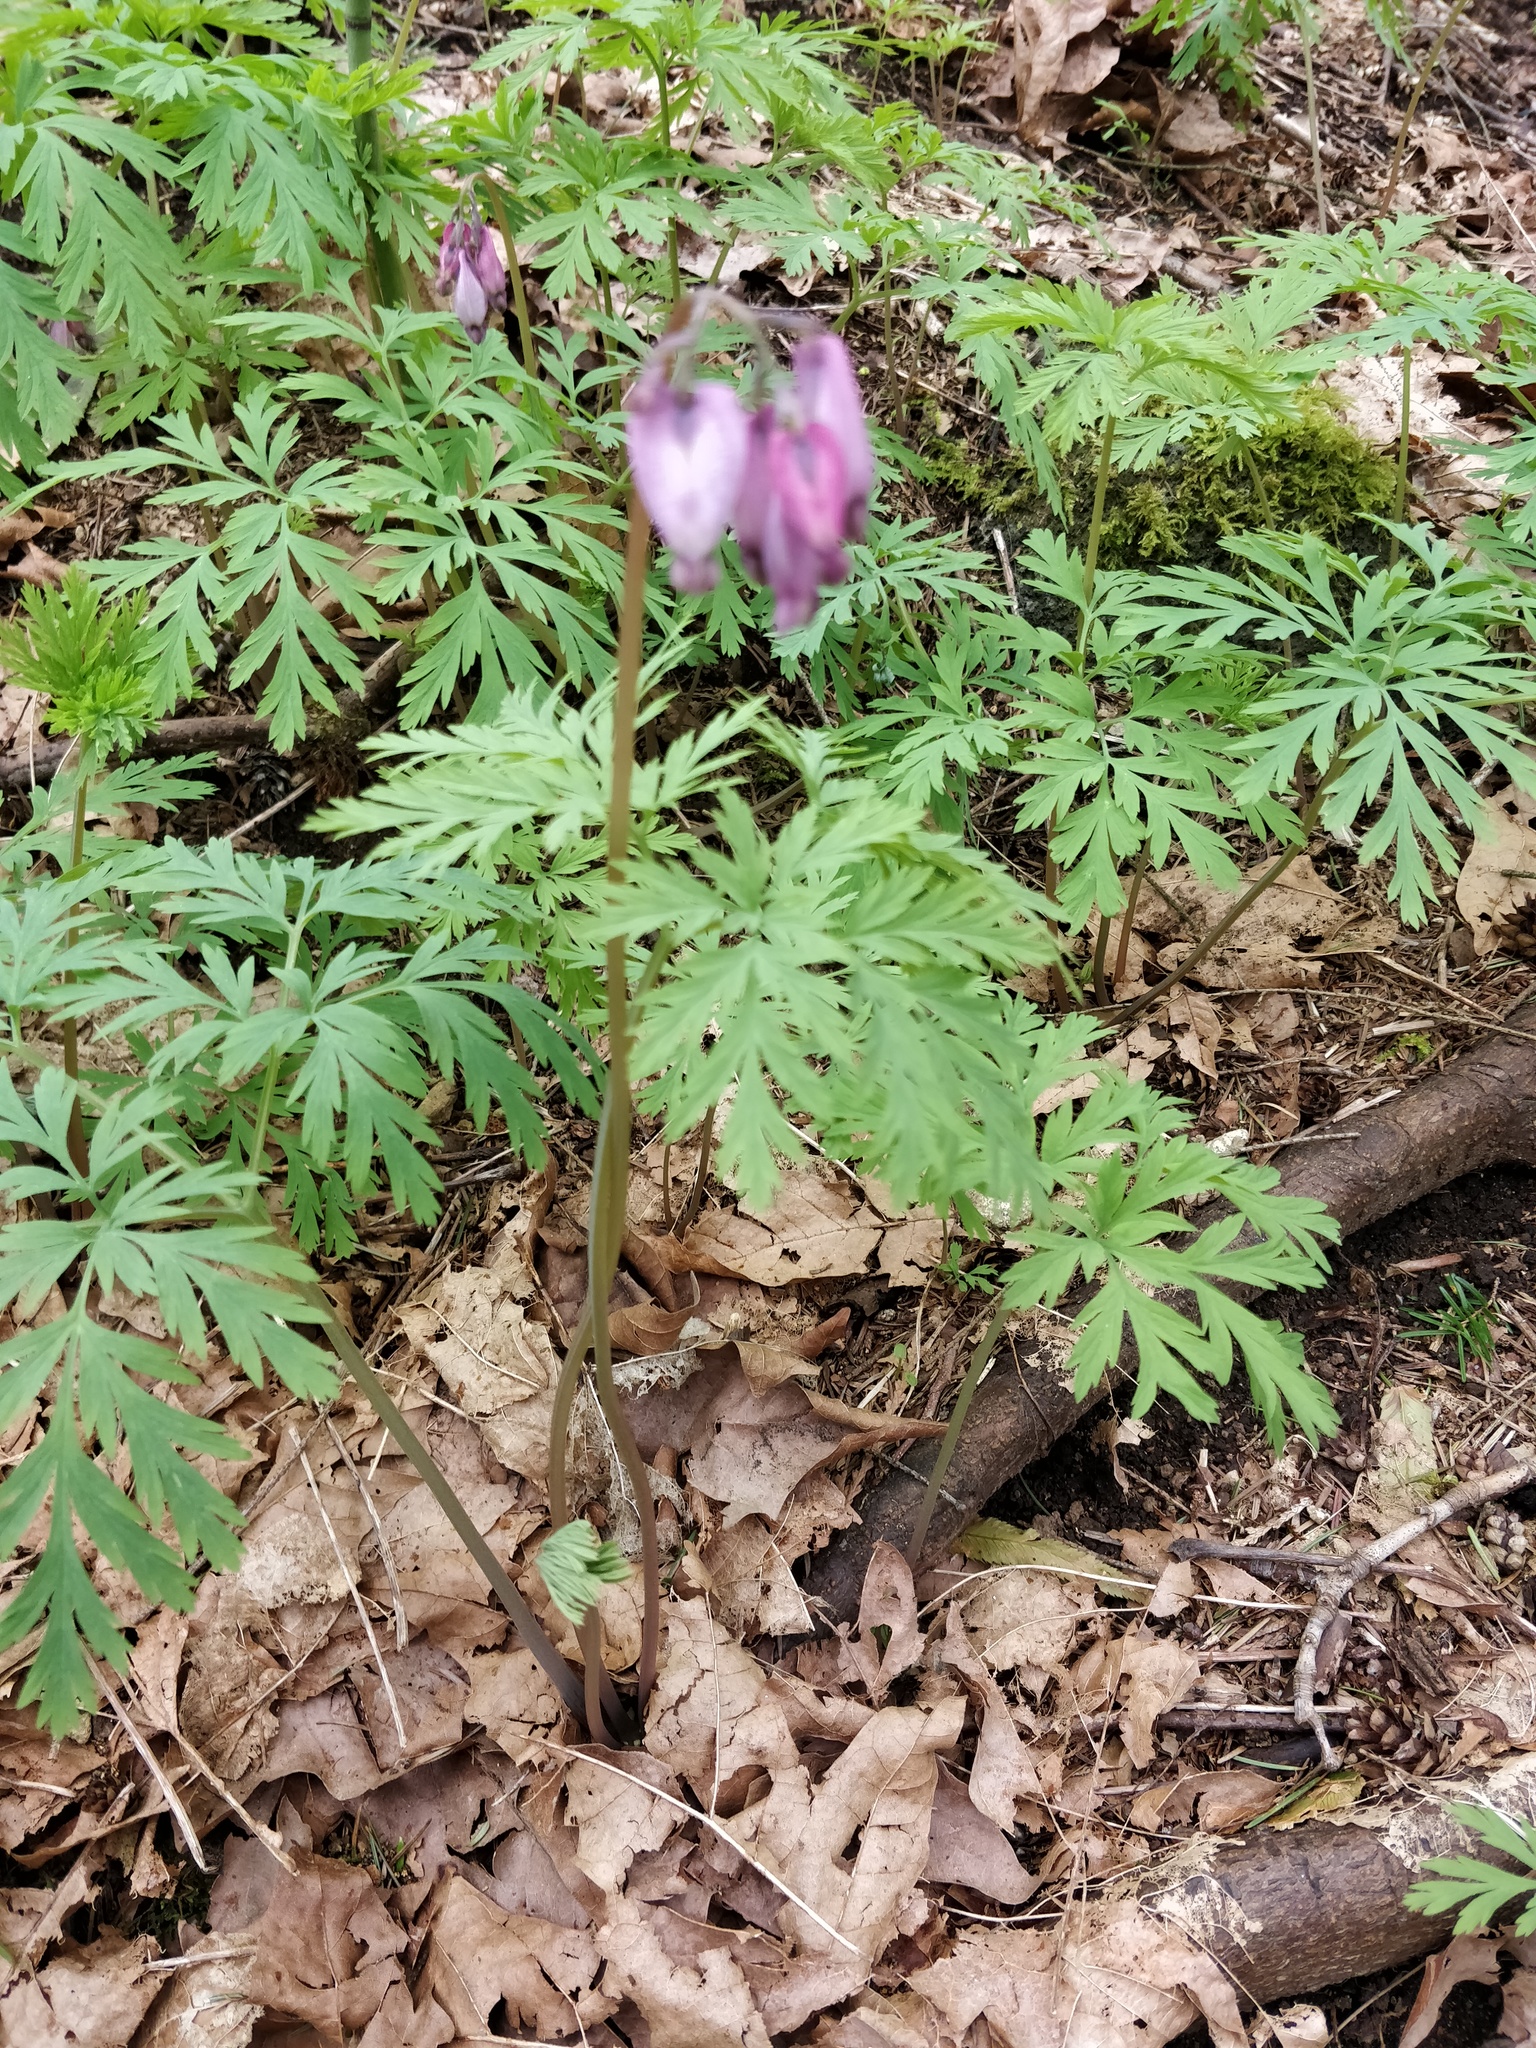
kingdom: Plantae
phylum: Tracheophyta
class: Magnoliopsida
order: Ranunculales
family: Papaveraceae
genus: Dicentra
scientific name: Dicentra formosa
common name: Bleeding-heart
